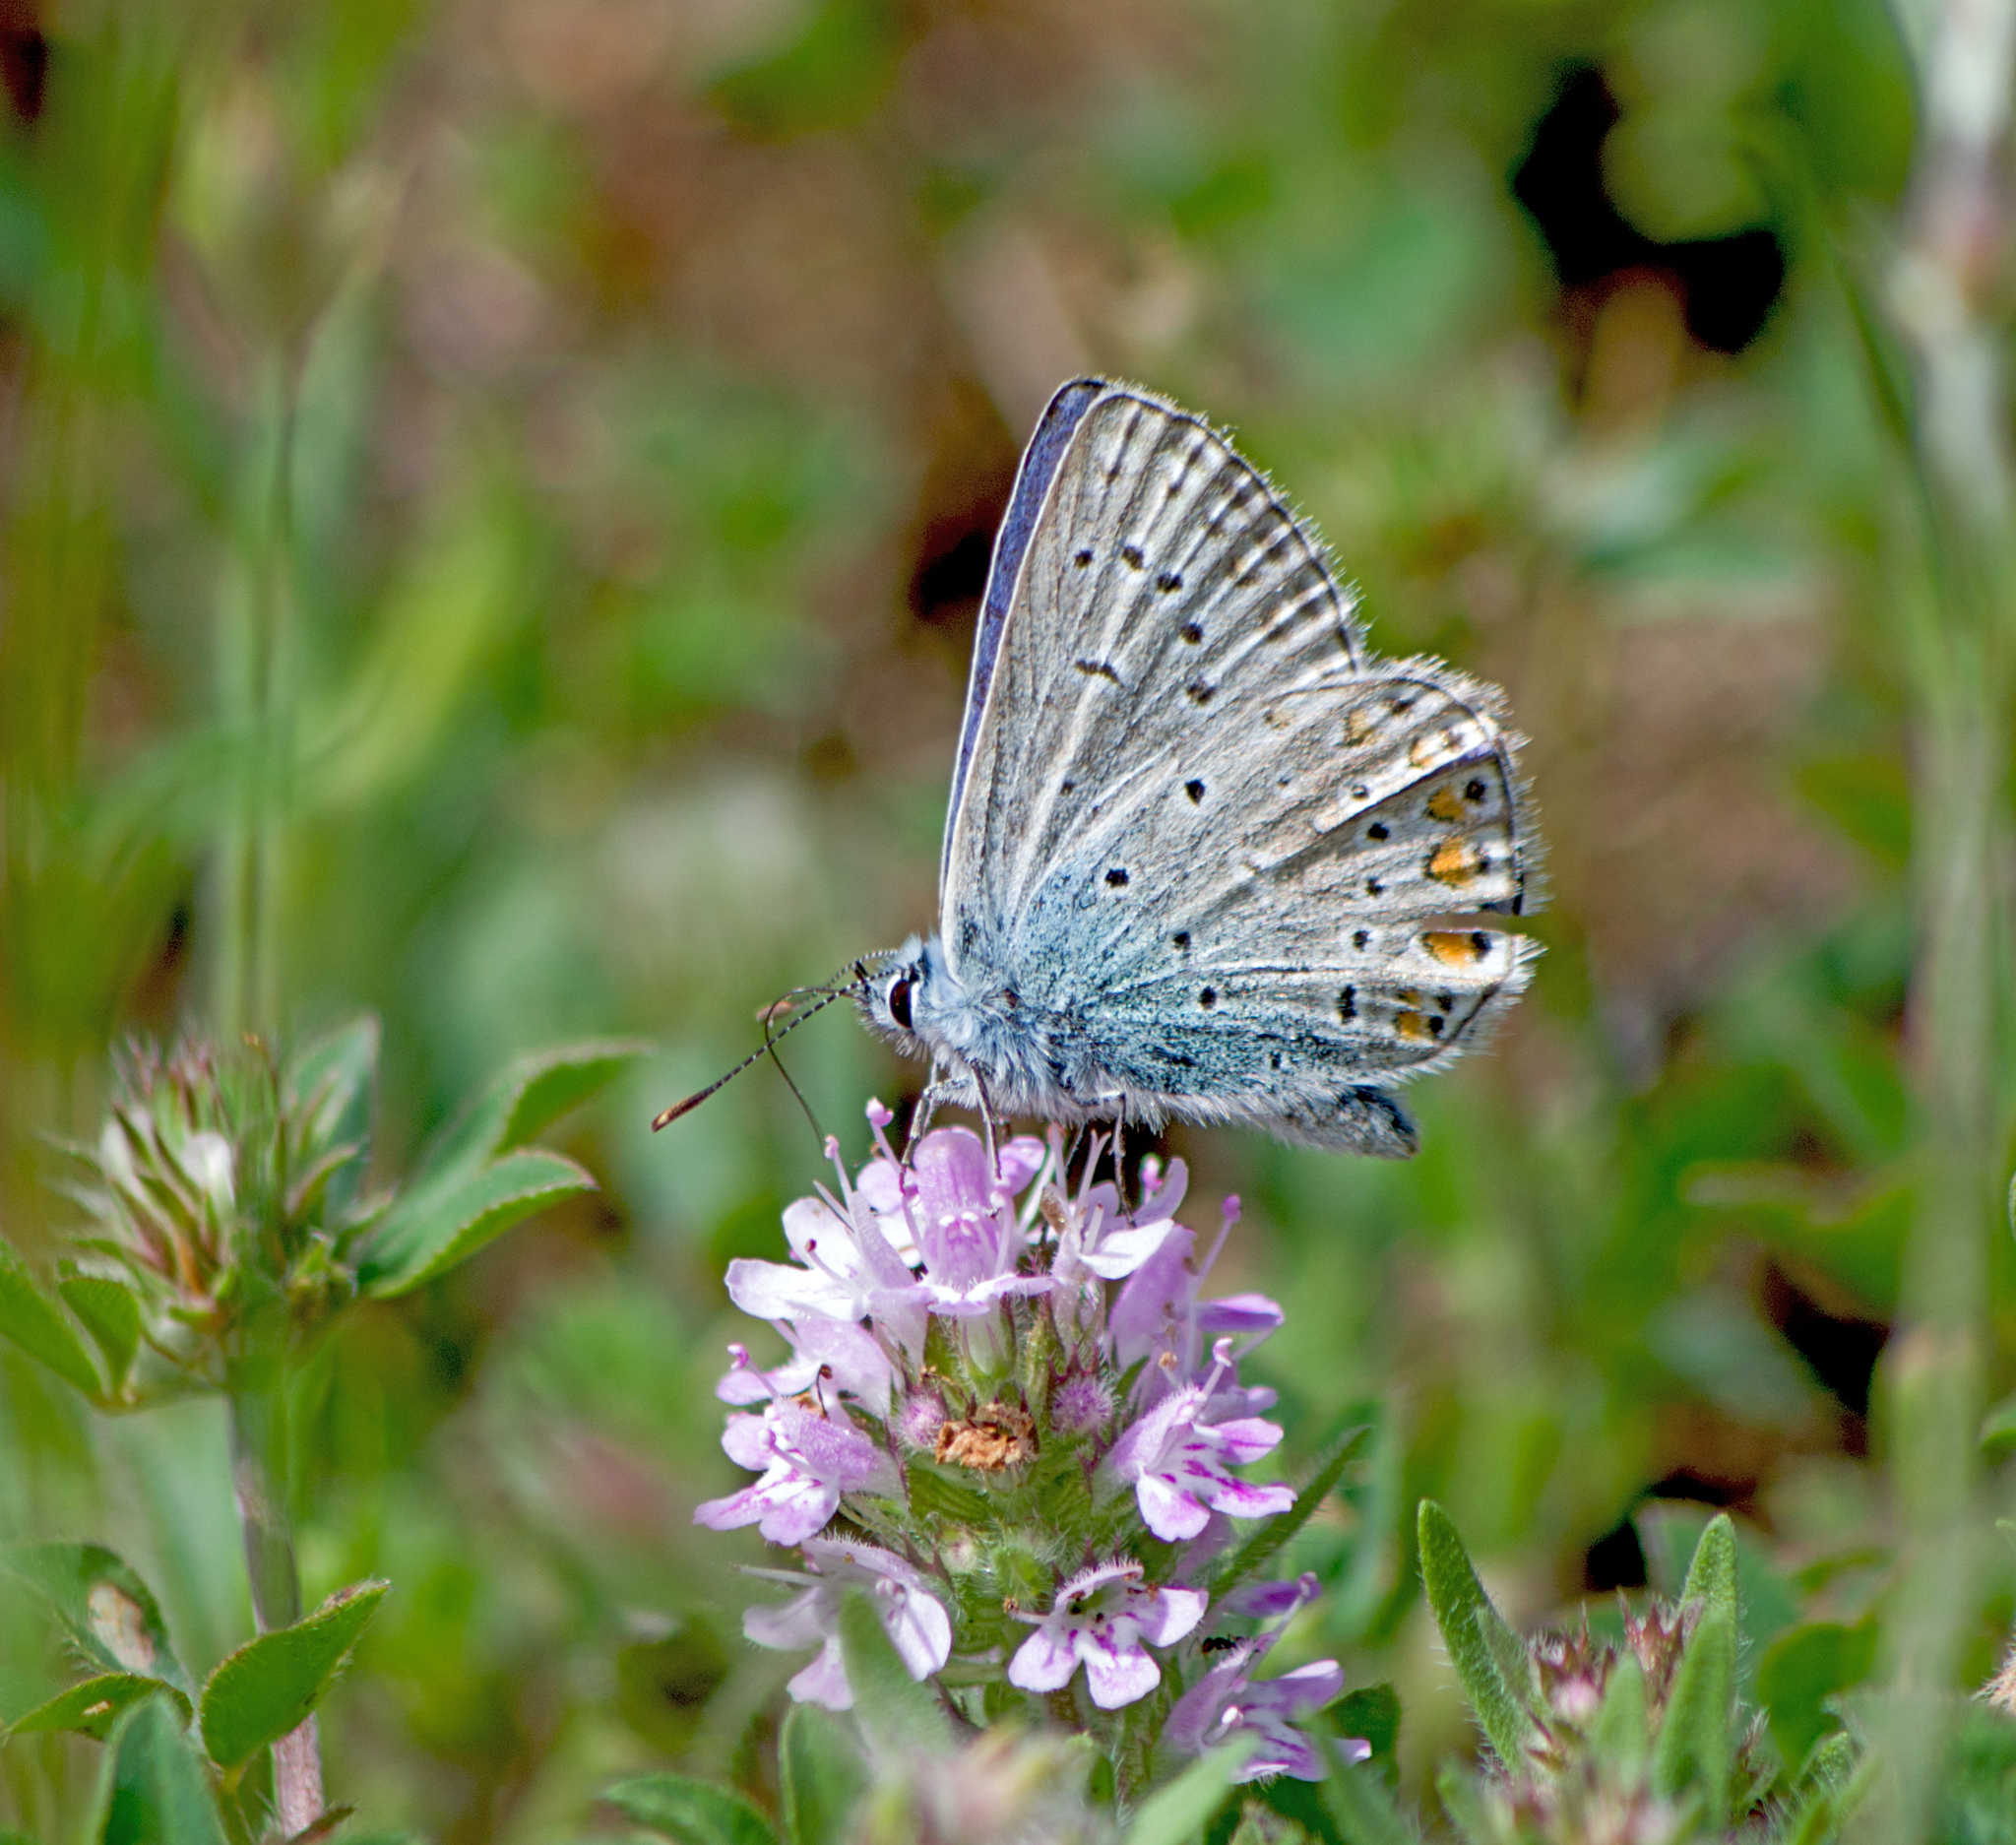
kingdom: Animalia
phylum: Arthropoda
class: Insecta
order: Lepidoptera
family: Lycaenidae
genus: Polyommatus
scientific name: Polyommatus icarus
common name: Common blue
